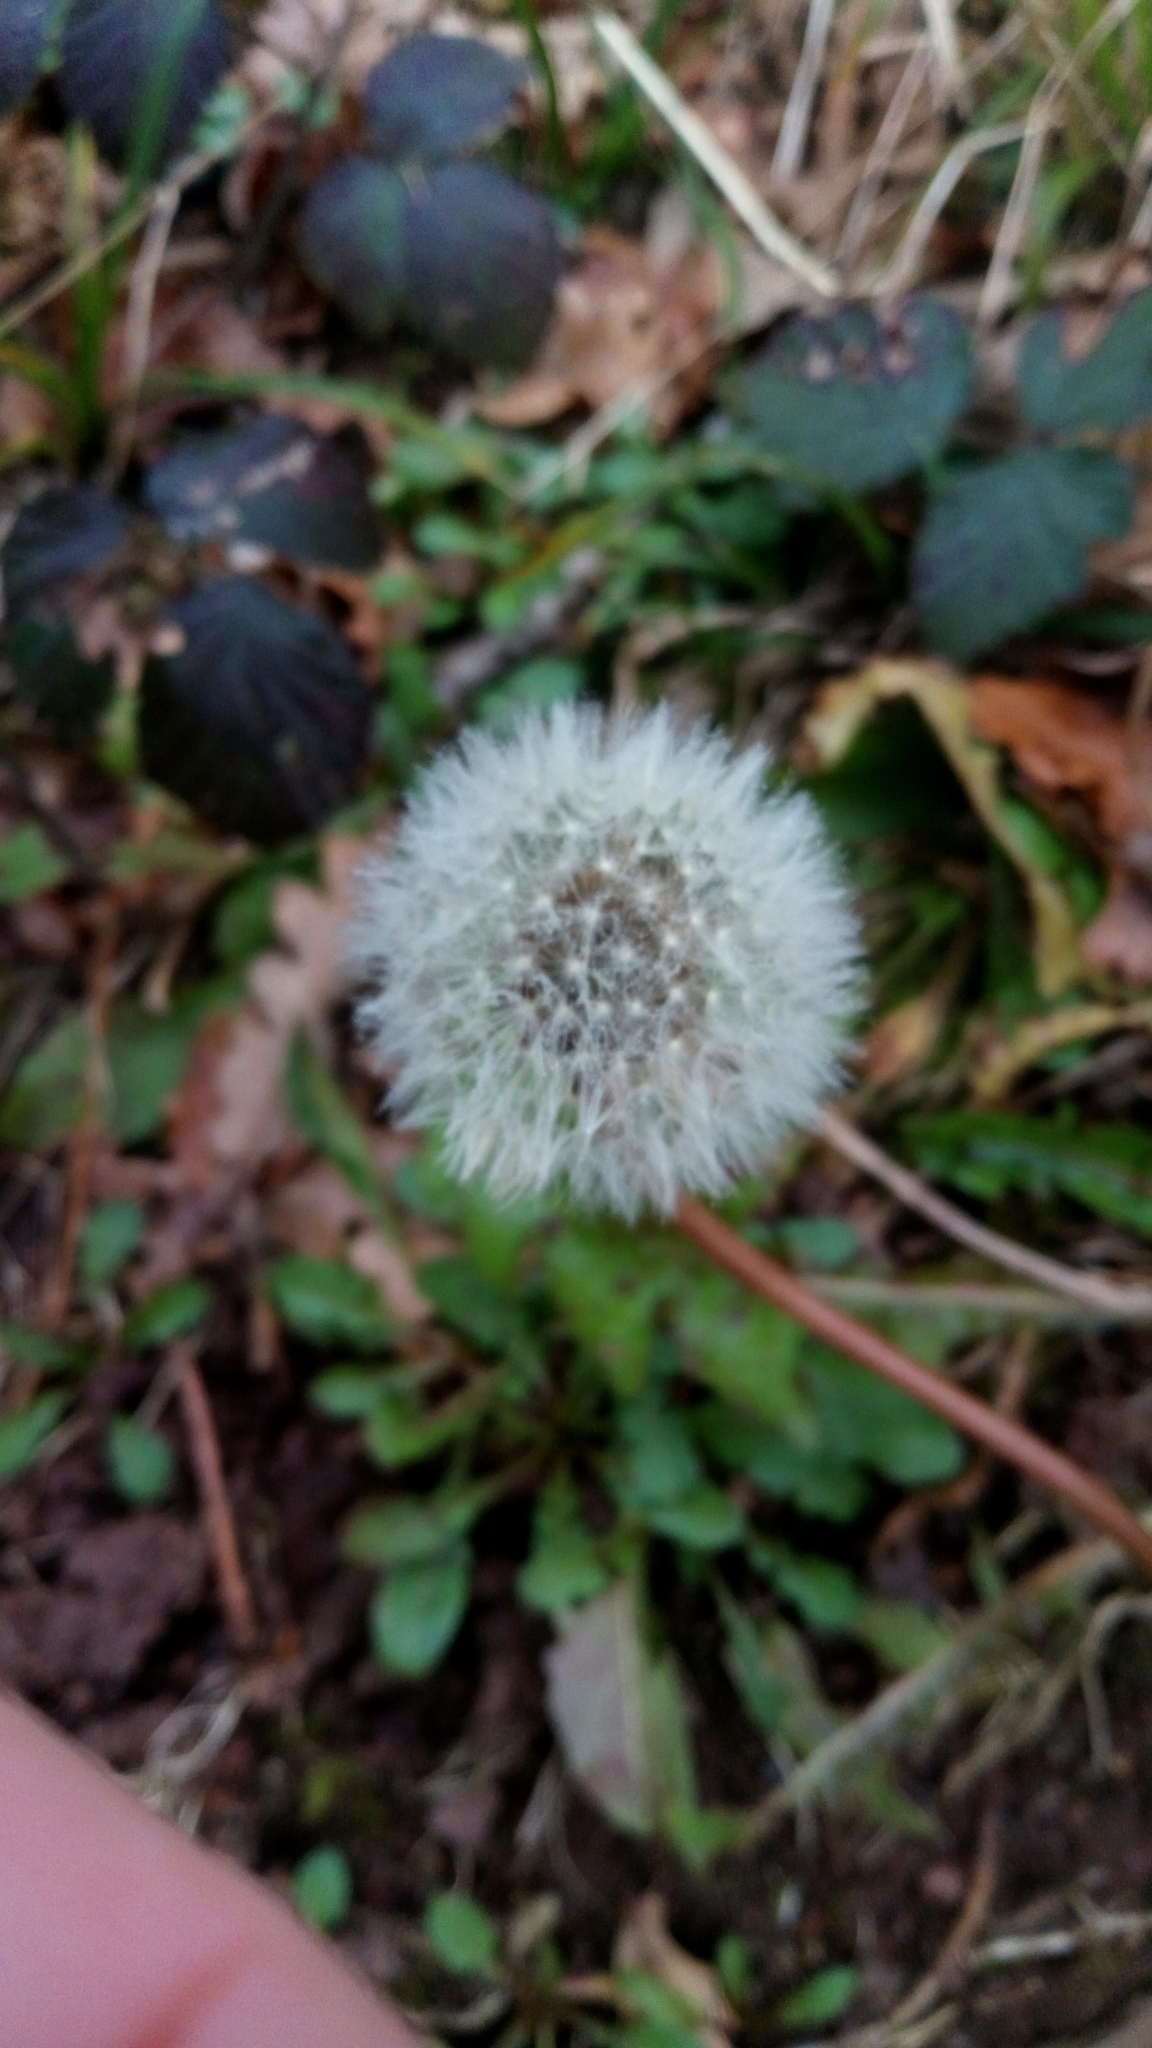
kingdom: Plantae
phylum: Tracheophyta
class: Magnoliopsida
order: Asterales
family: Asteraceae
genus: Taraxacum
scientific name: Taraxacum officinale
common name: Common dandelion
